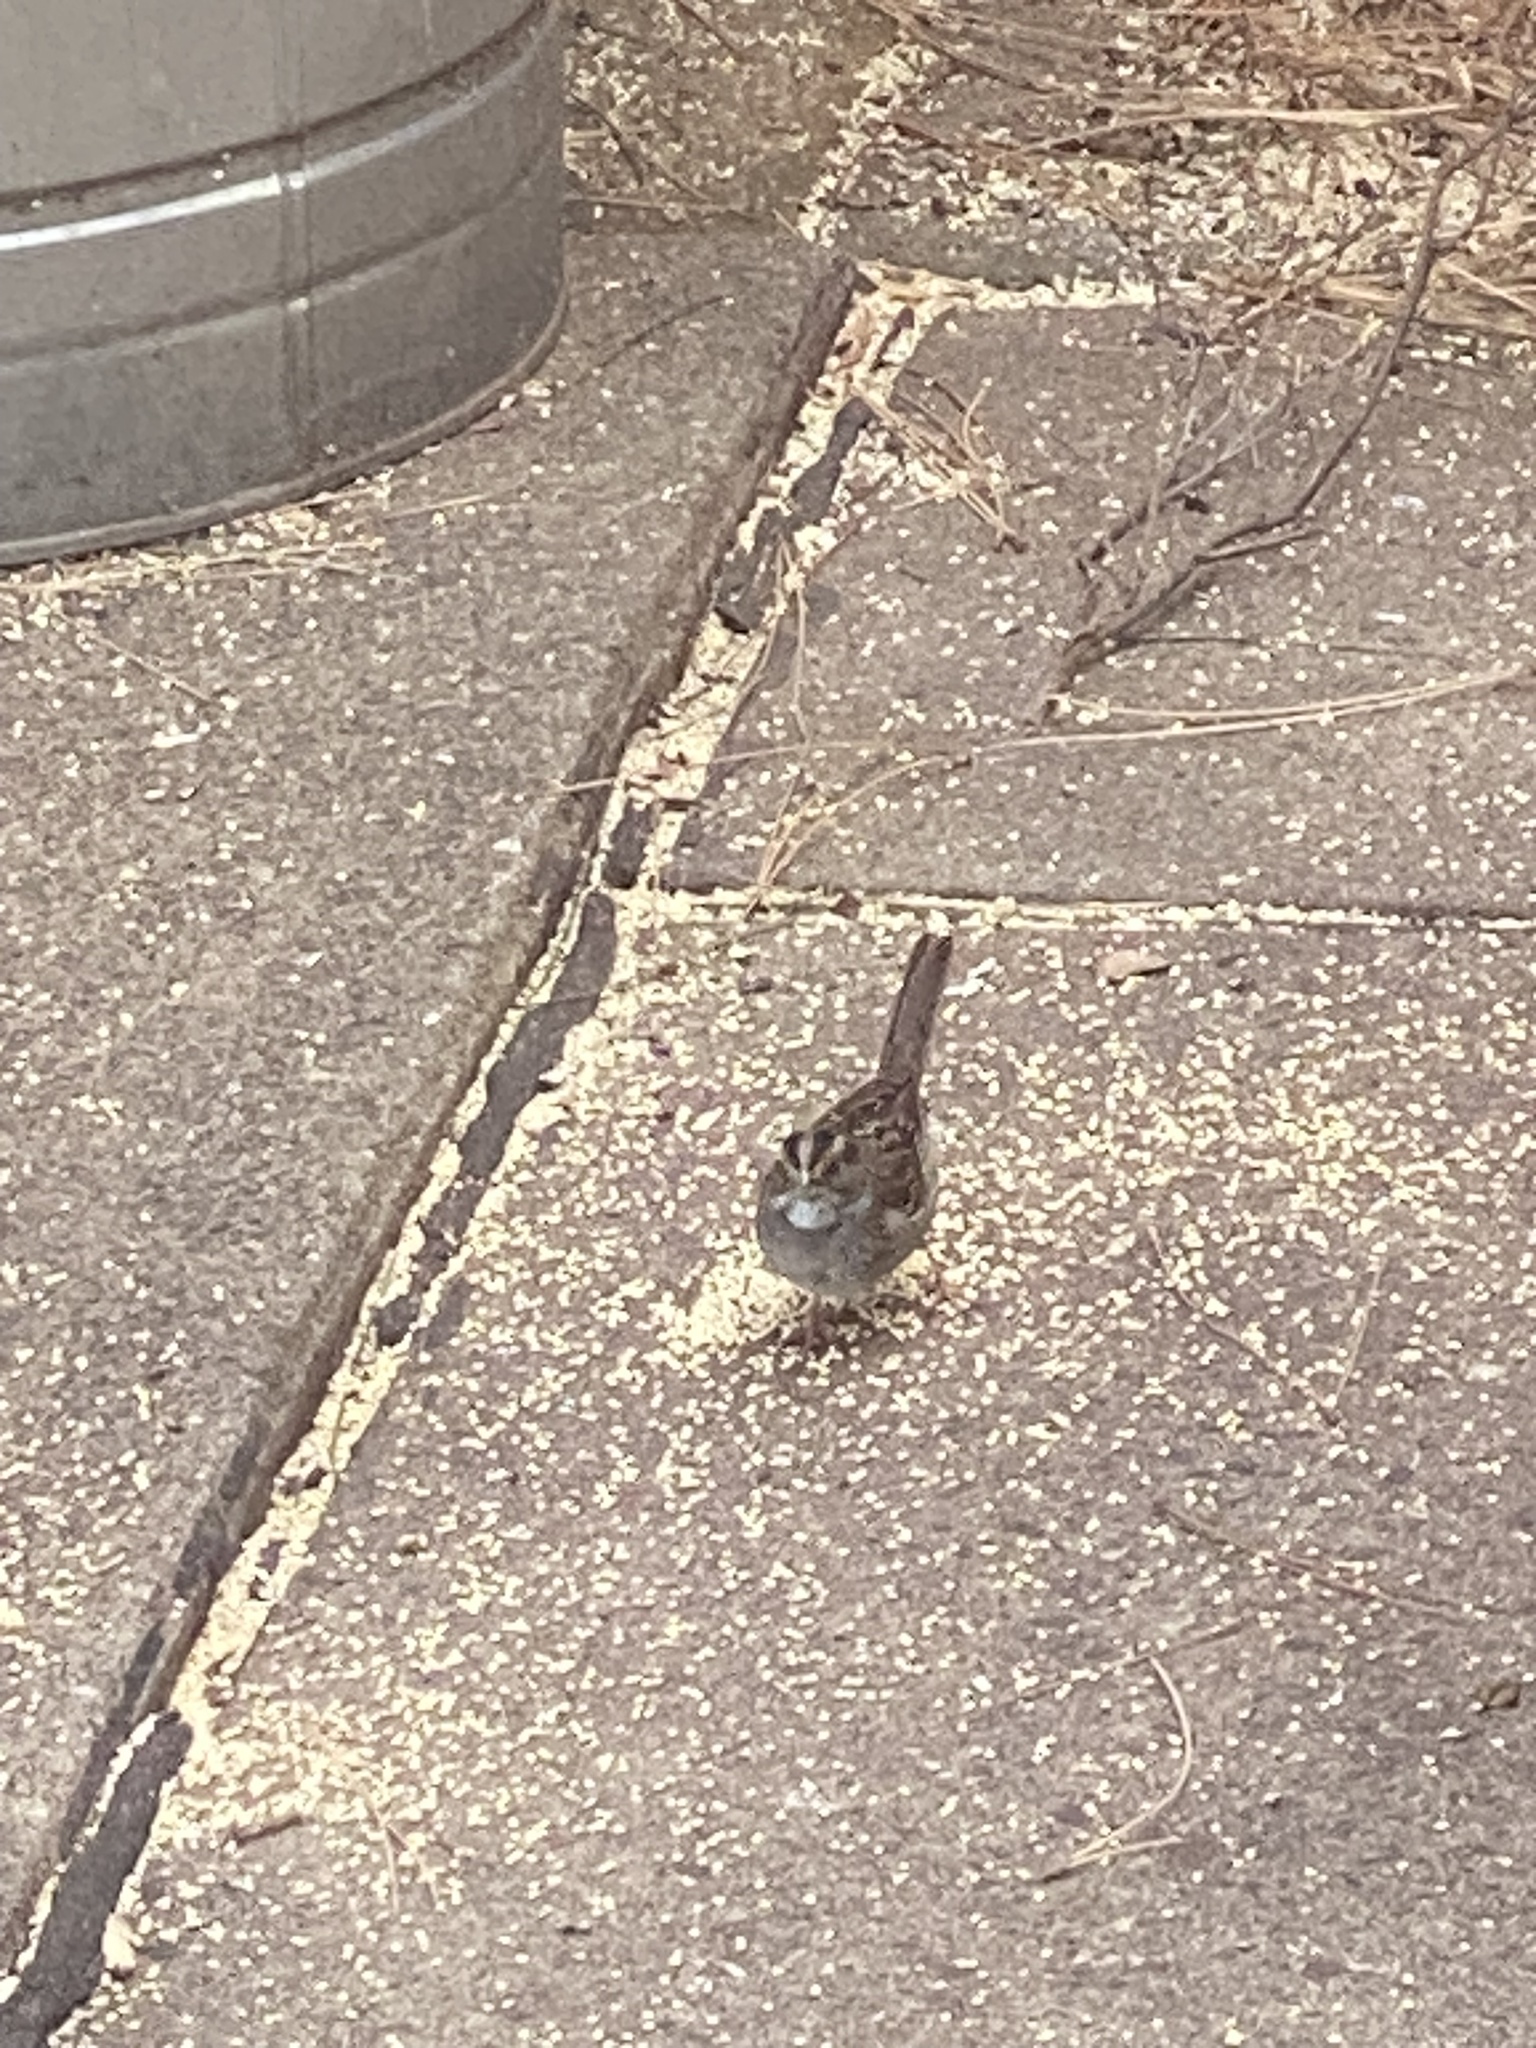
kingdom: Animalia
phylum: Chordata
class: Aves
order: Passeriformes
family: Passerellidae
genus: Zonotrichia
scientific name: Zonotrichia albicollis
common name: White-throated sparrow
